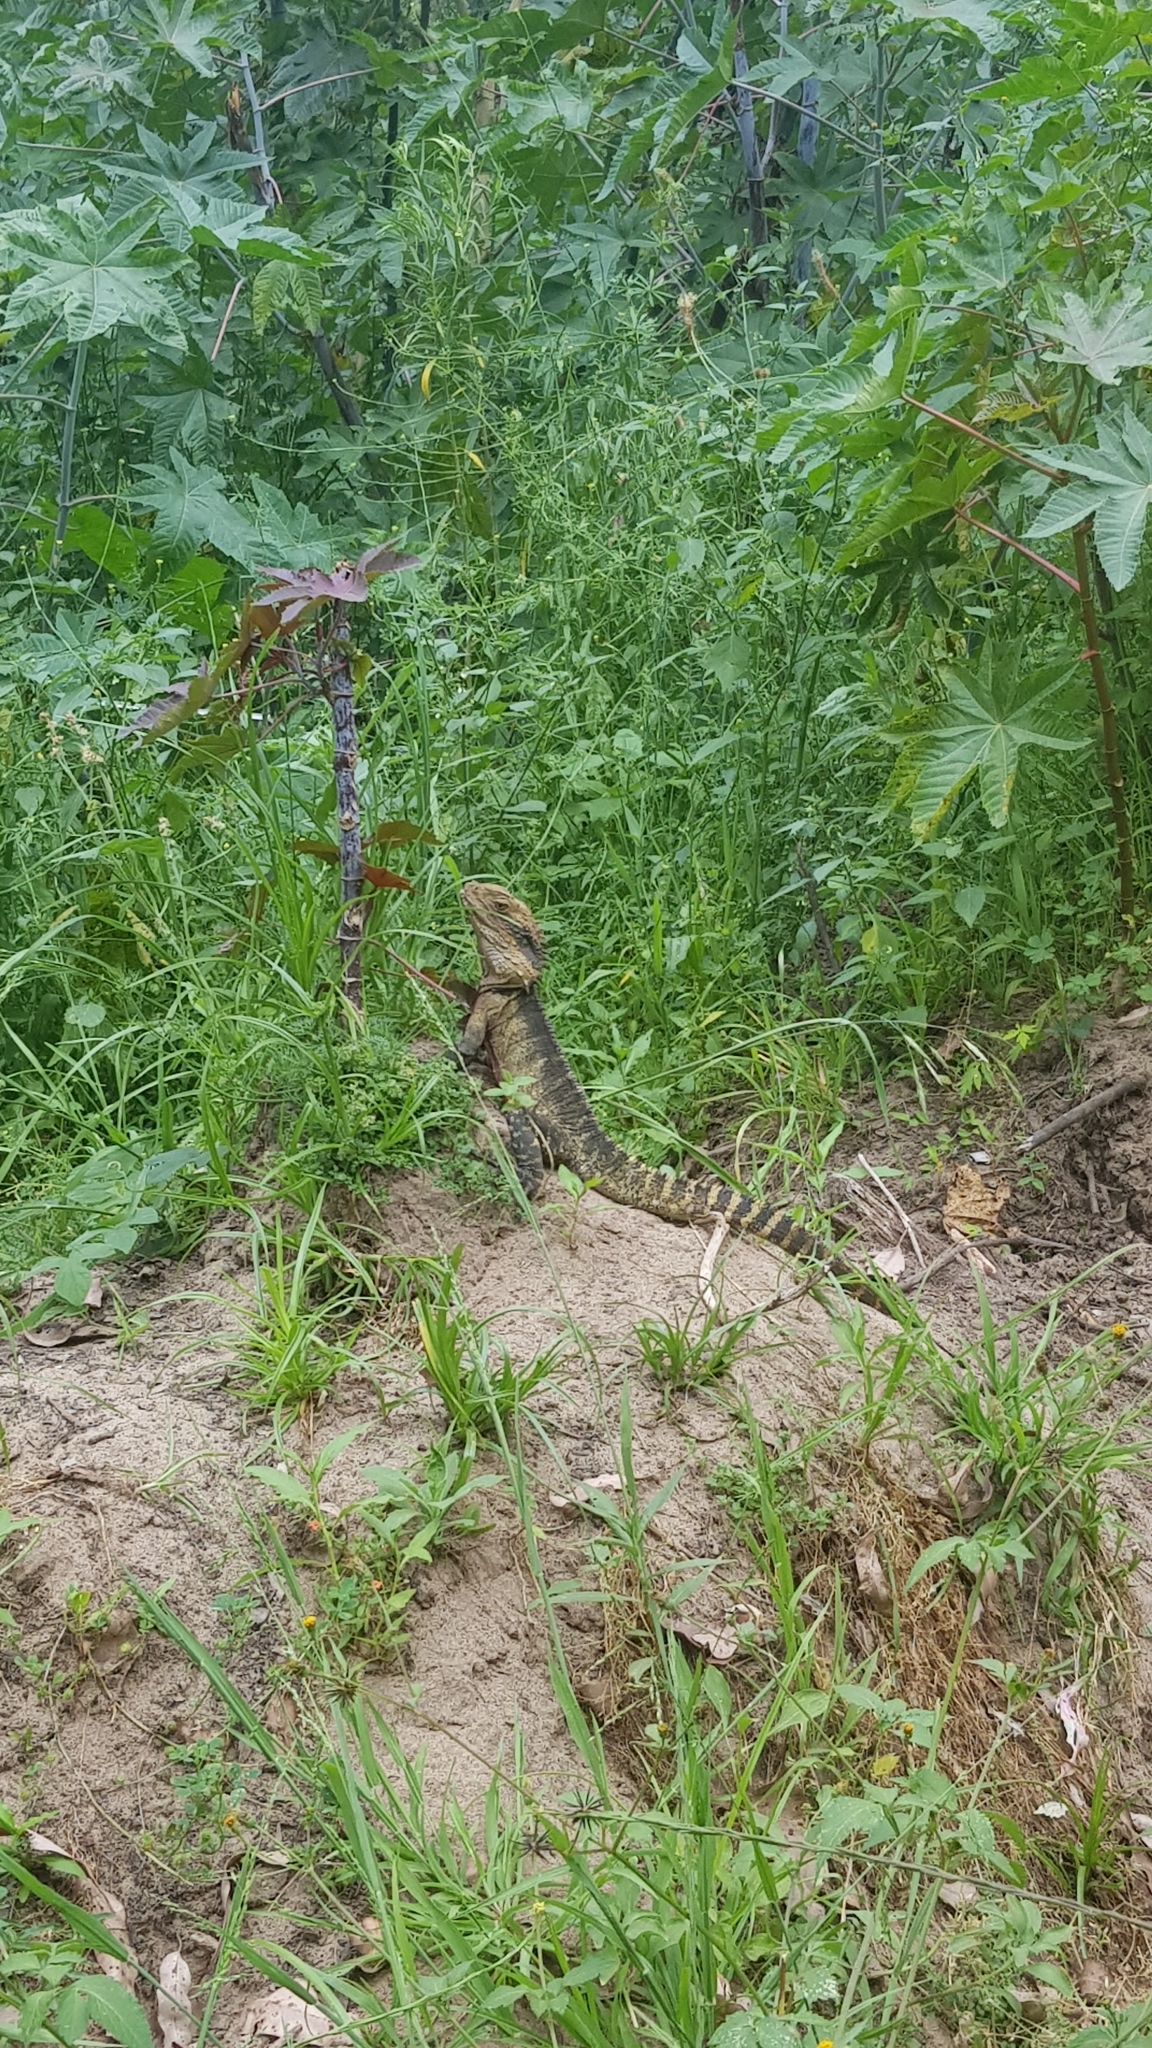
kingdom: Animalia
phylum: Chordata
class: Squamata
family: Agamidae
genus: Intellagama
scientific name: Intellagama lesueurii
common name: Eastern water dragon
